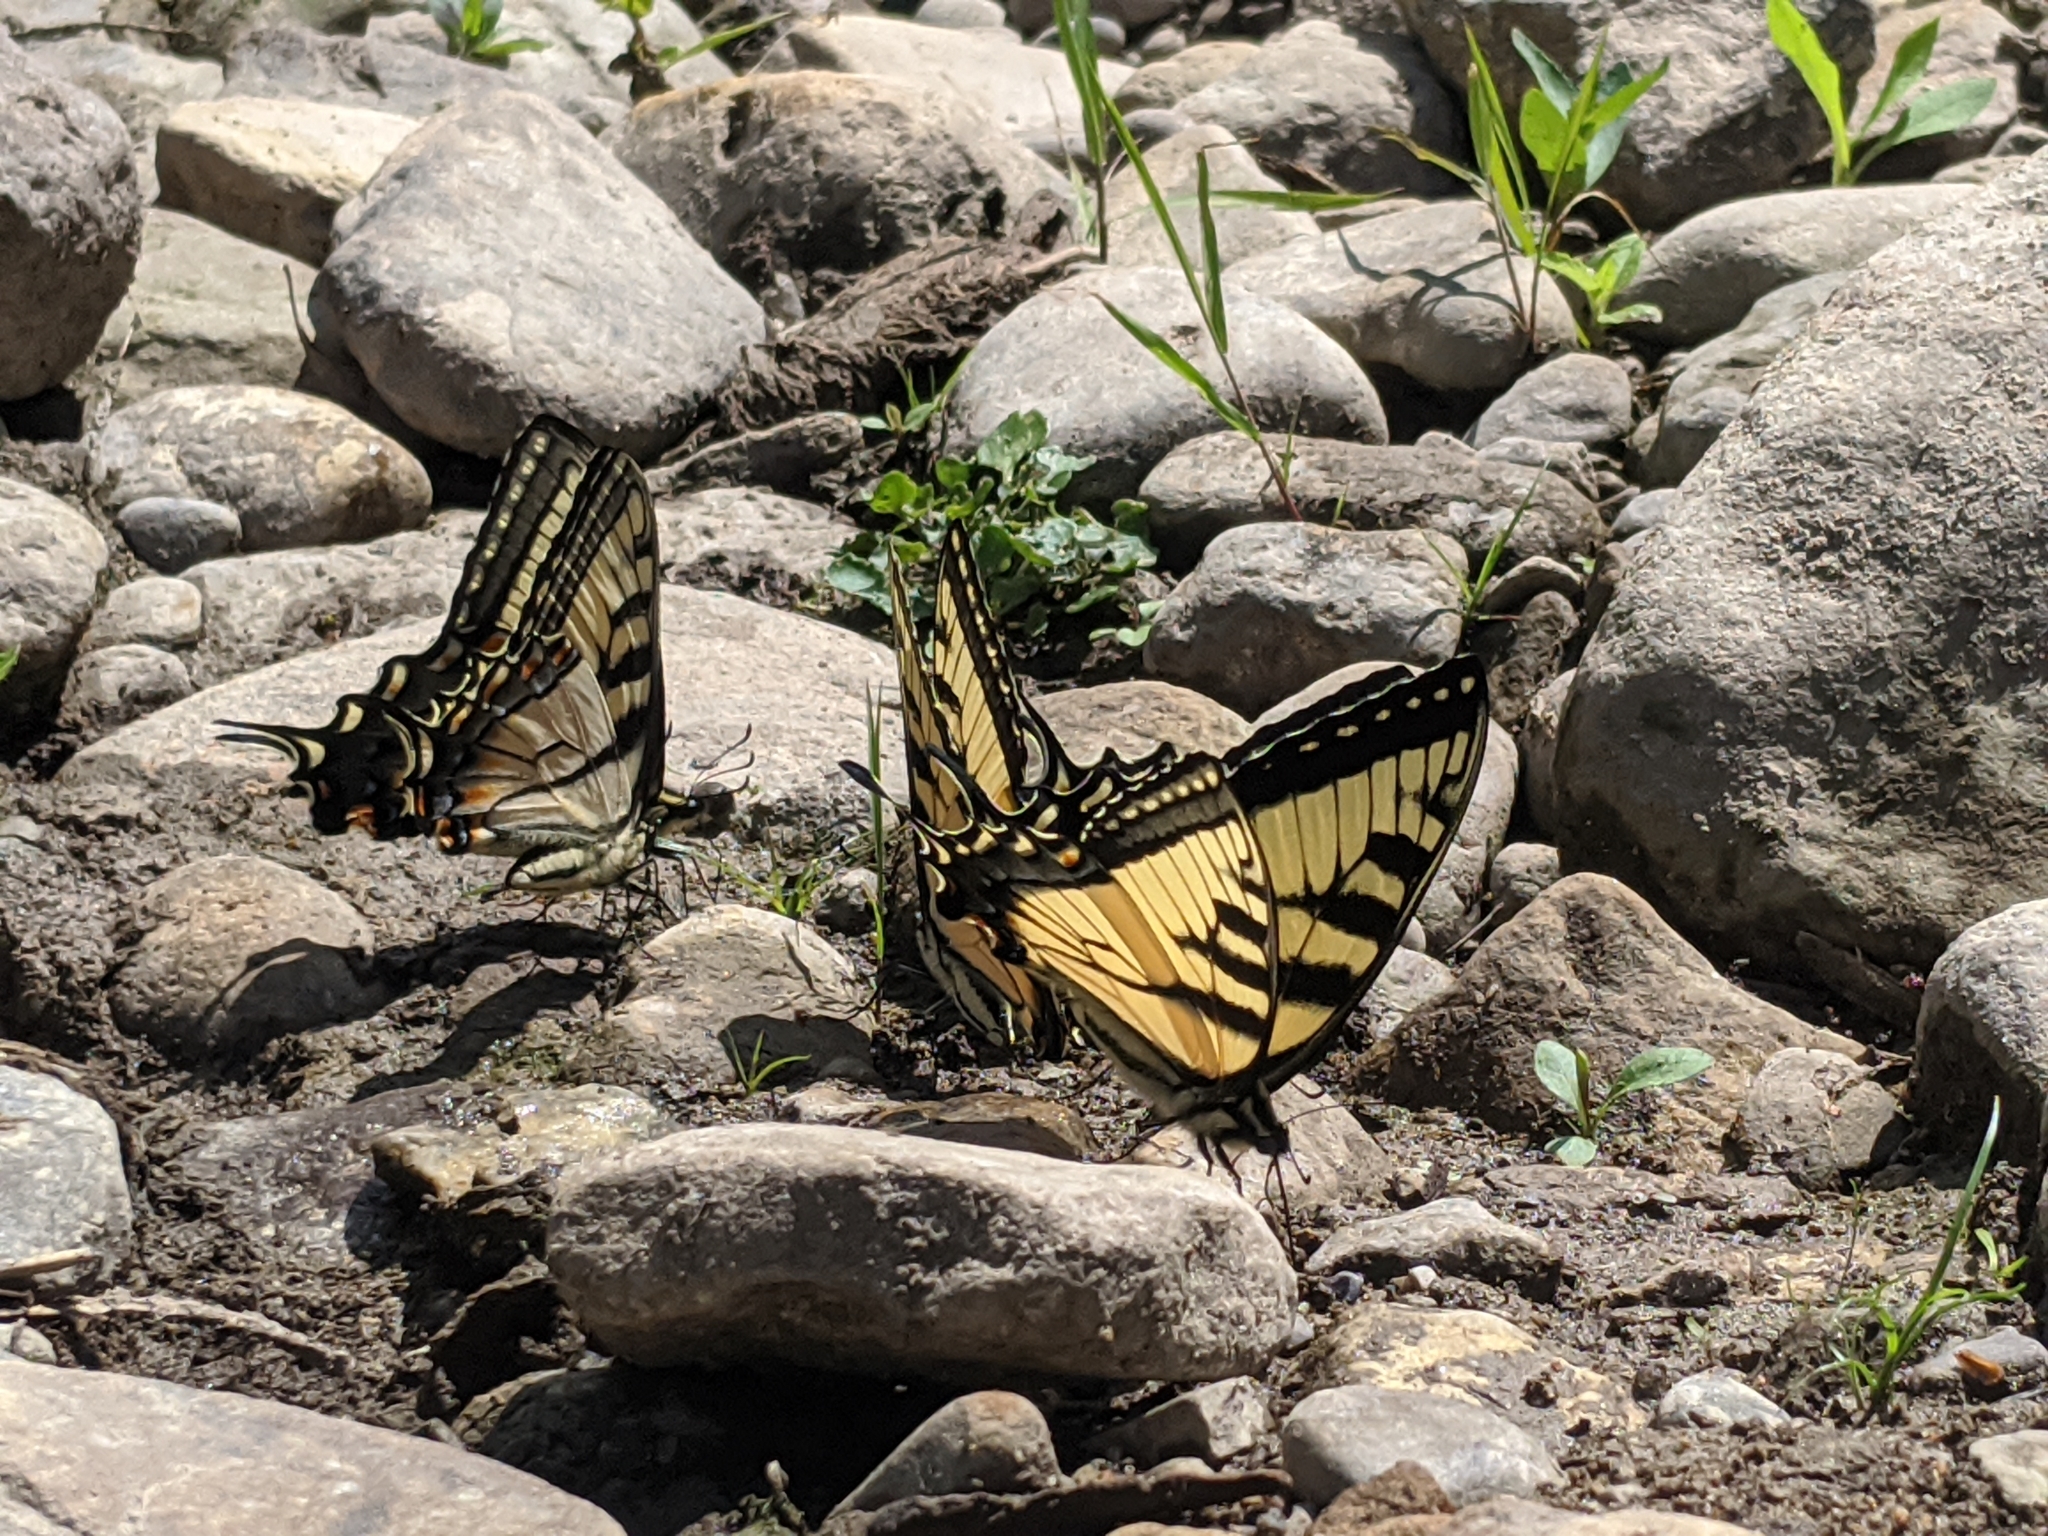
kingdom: Animalia
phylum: Arthropoda
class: Insecta
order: Lepidoptera
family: Papilionidae
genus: Papilio
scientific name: Papilio
